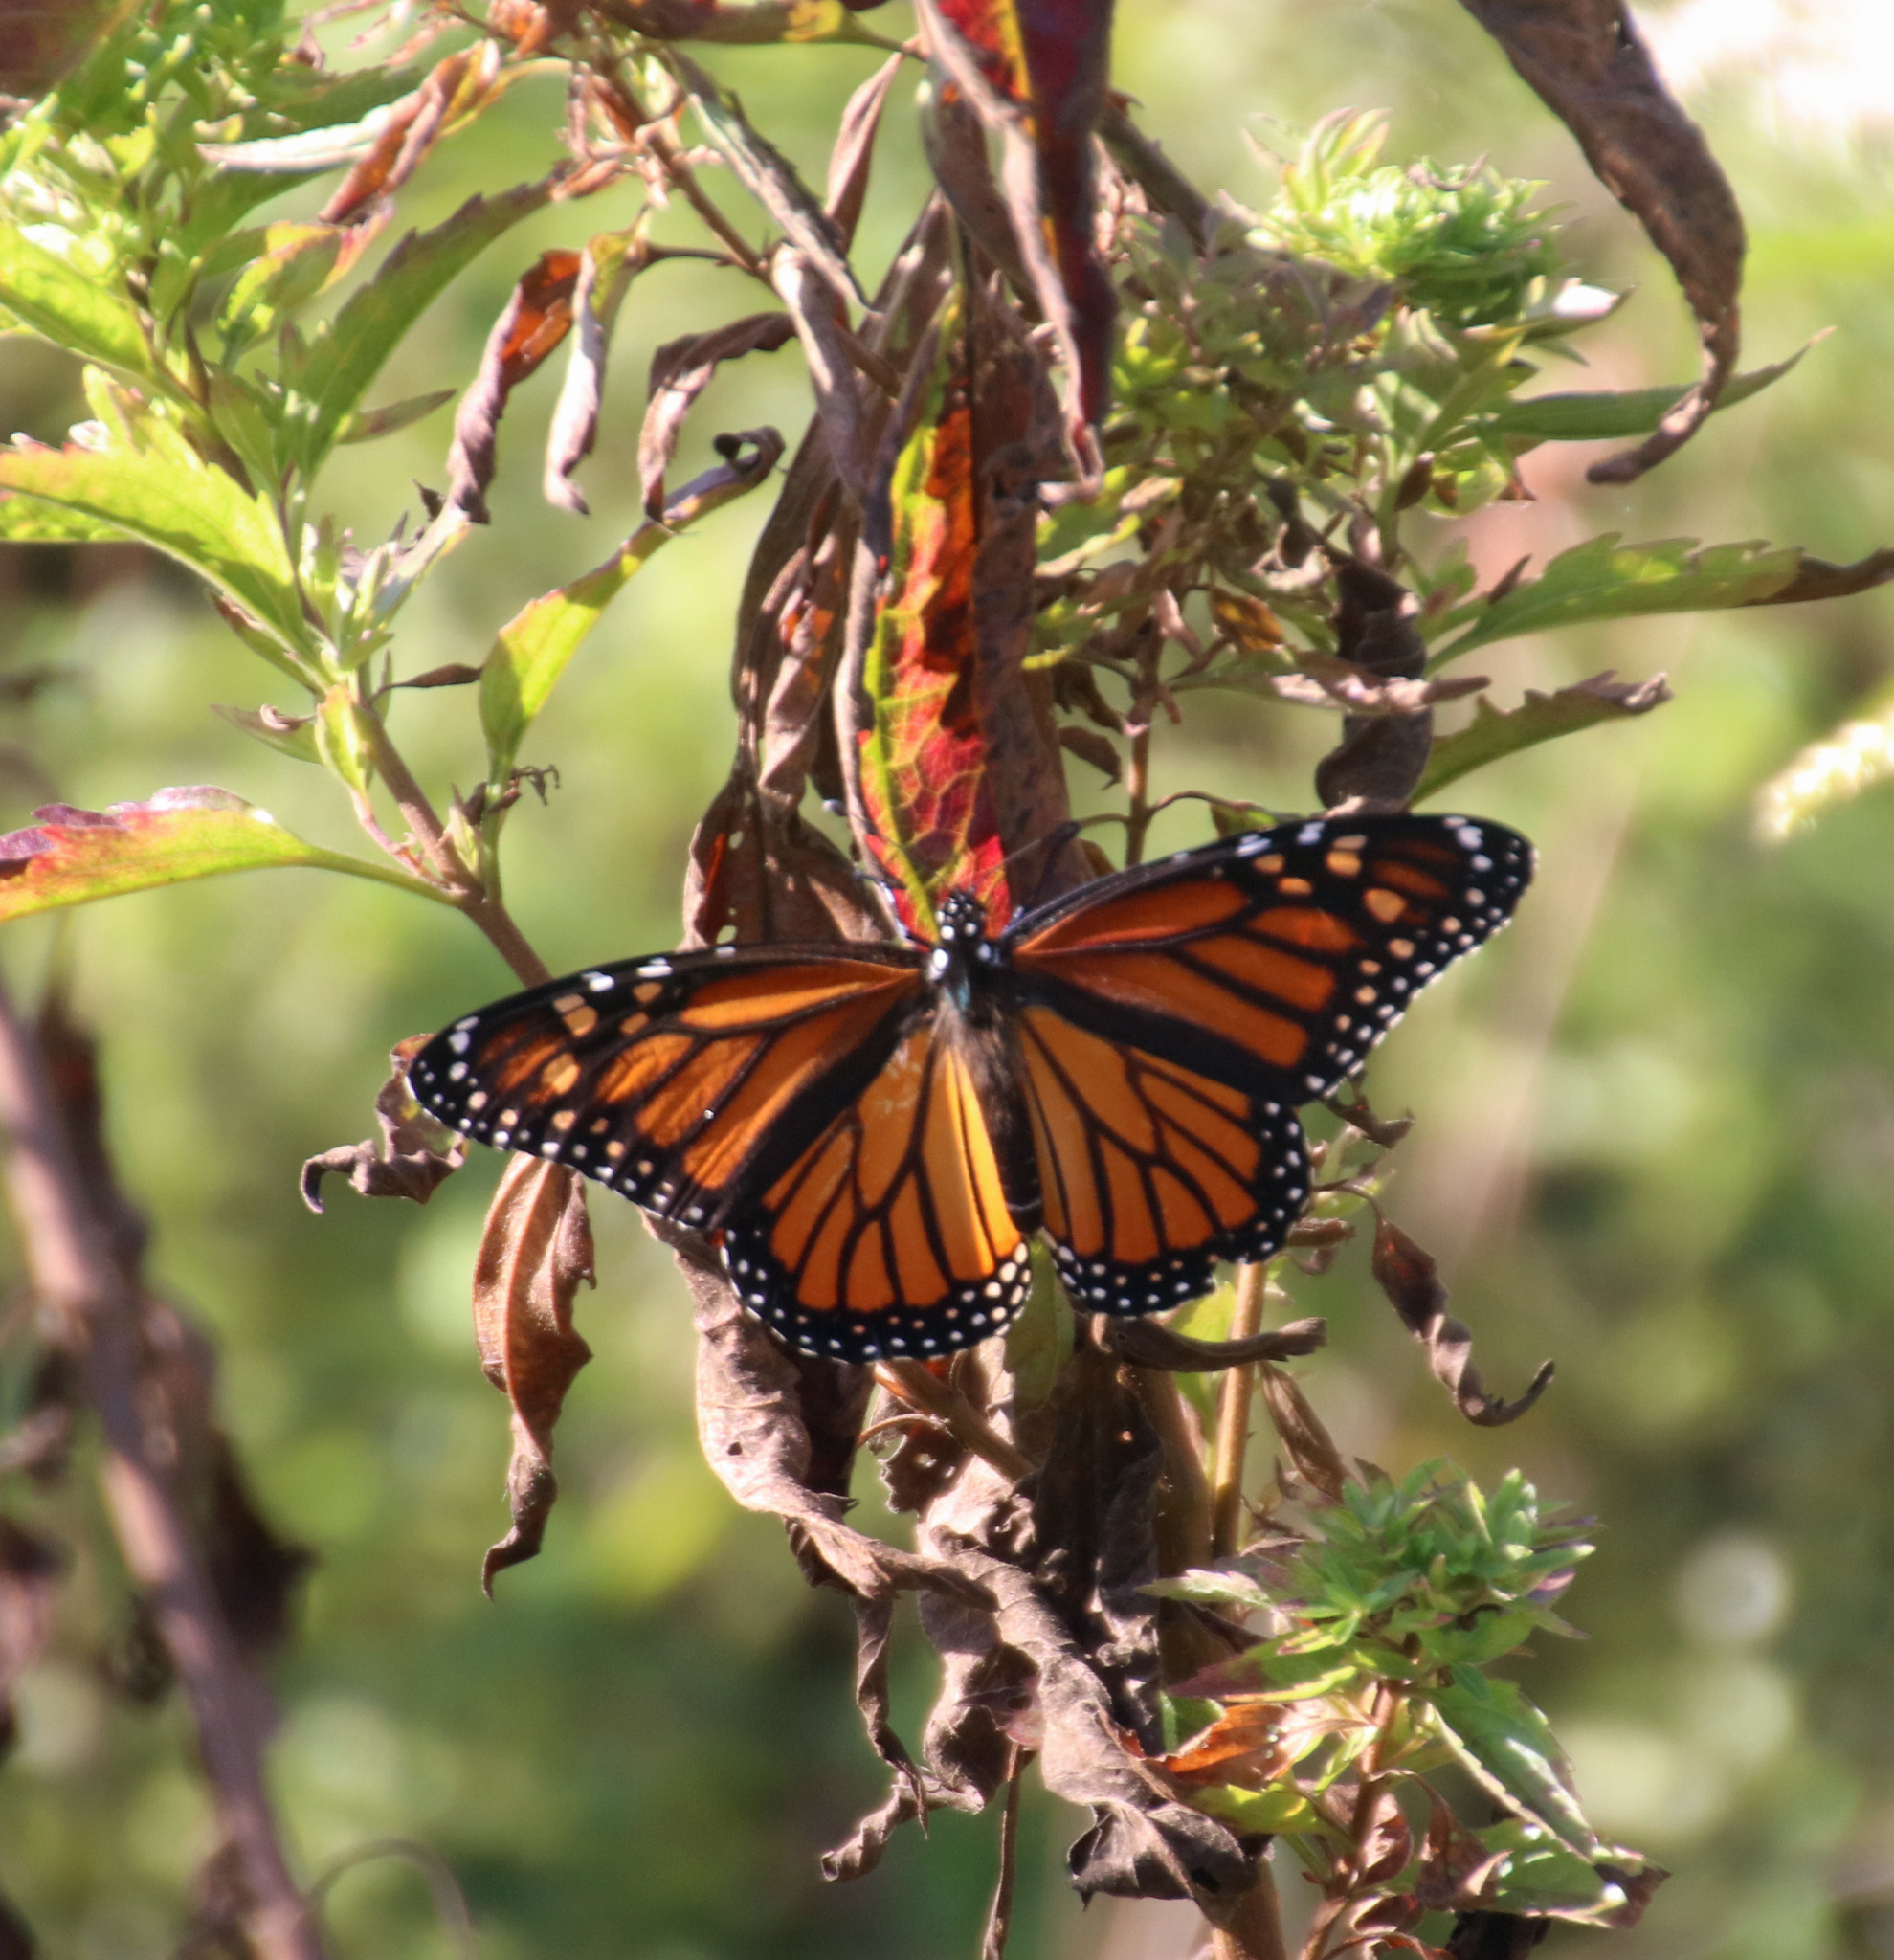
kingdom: Animalia
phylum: Arthropoda
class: Insecta
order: Lepidoptera
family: Nymphalidae
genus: Danaus
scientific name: Danaus plexippus
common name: Monarch
